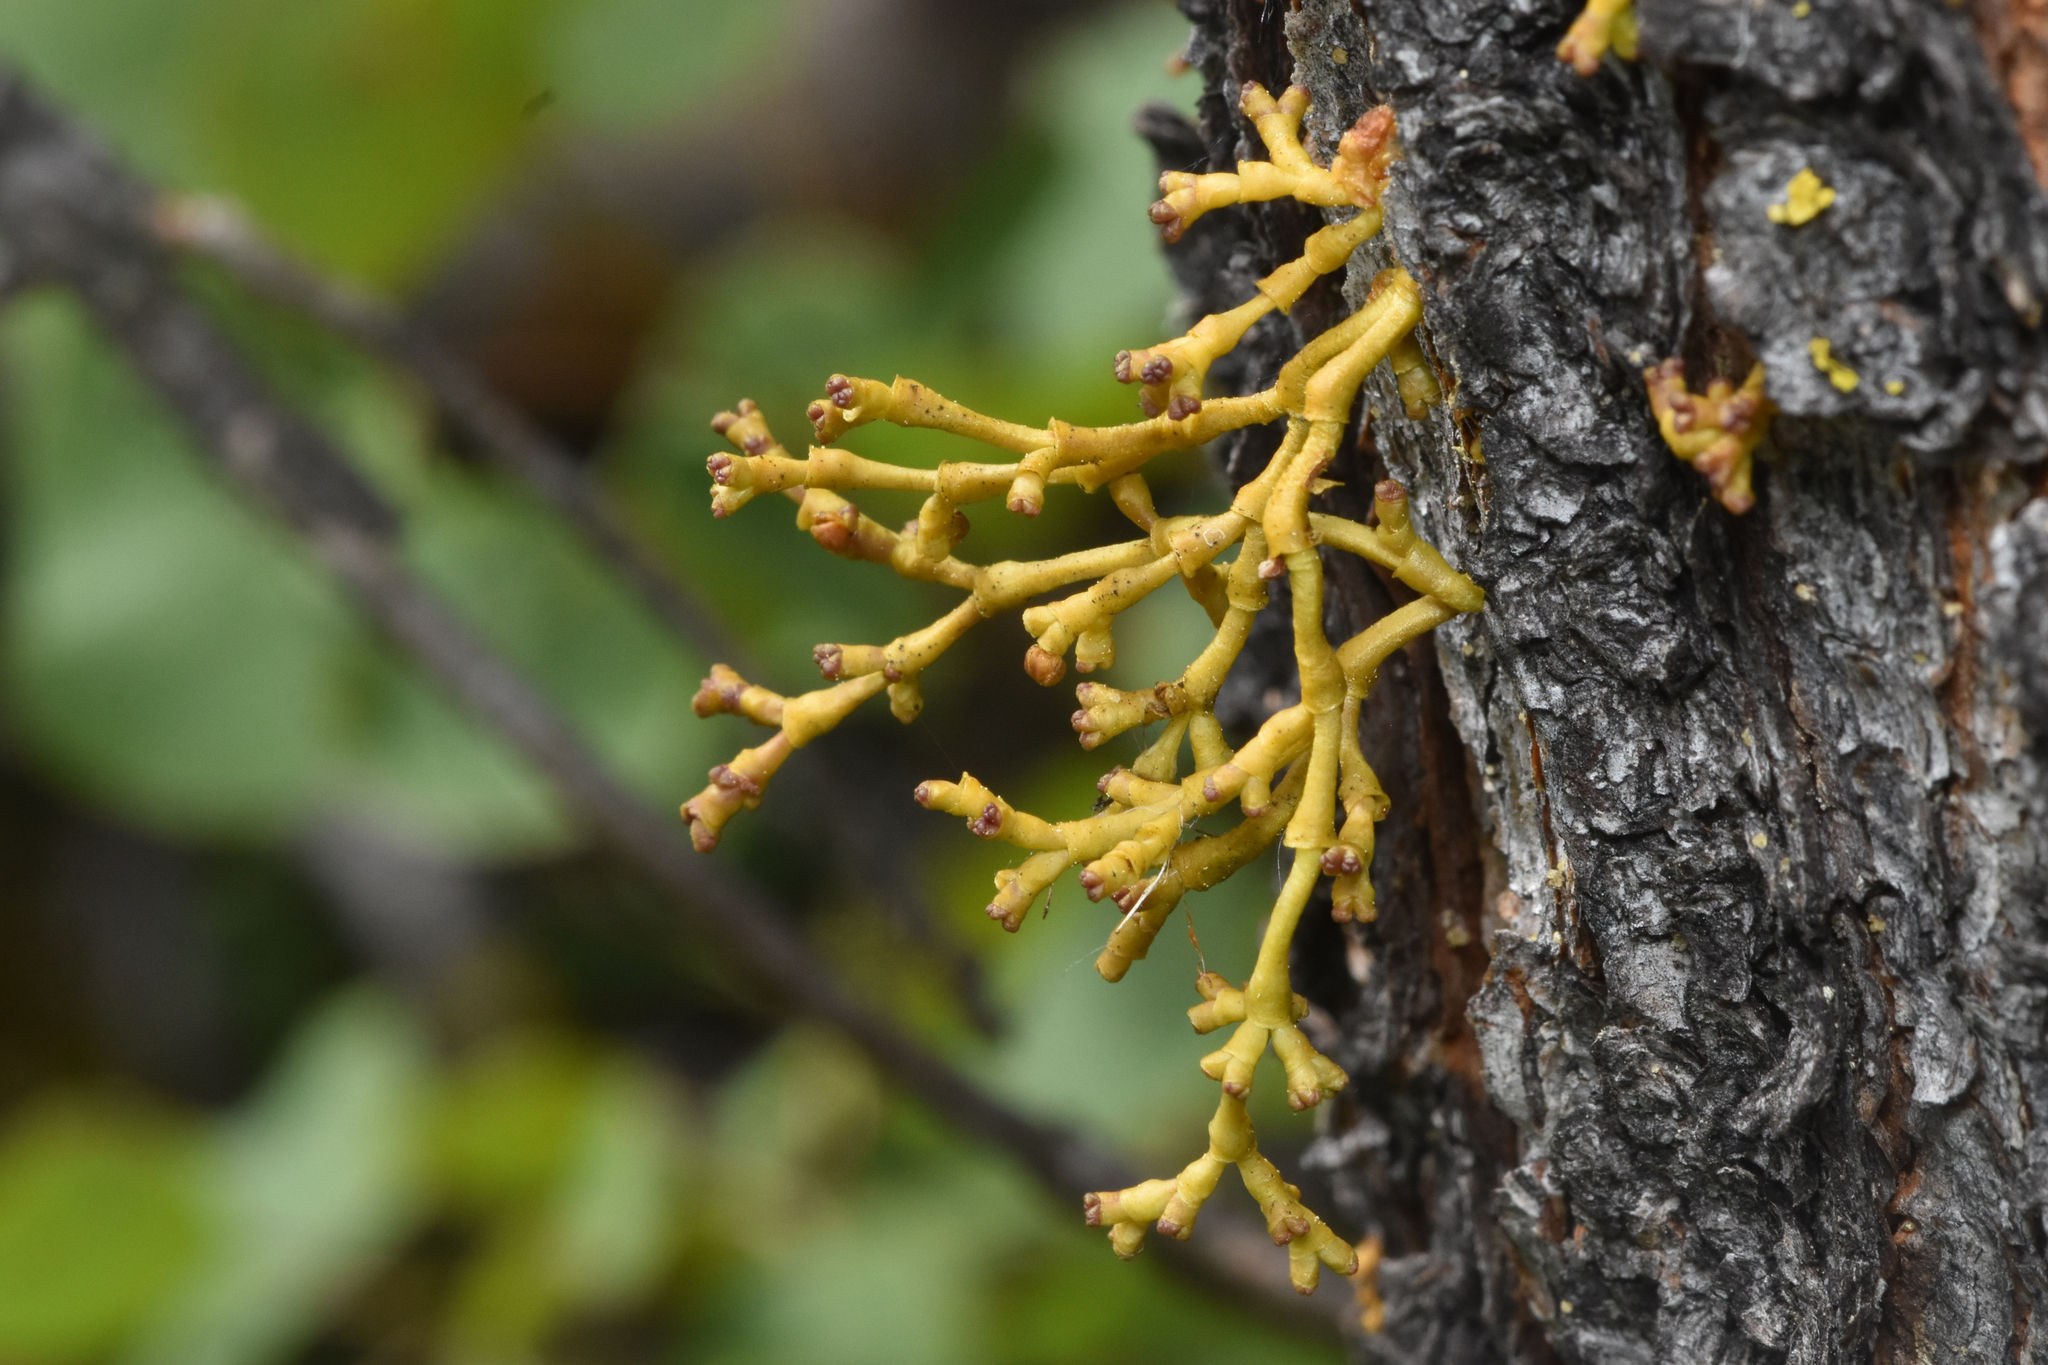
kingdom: Plantae
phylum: Tracheophyta
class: Magnoliopsida
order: Santalales
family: Viscaceae
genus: Arceuthobium
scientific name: Arceuthobium americanum
